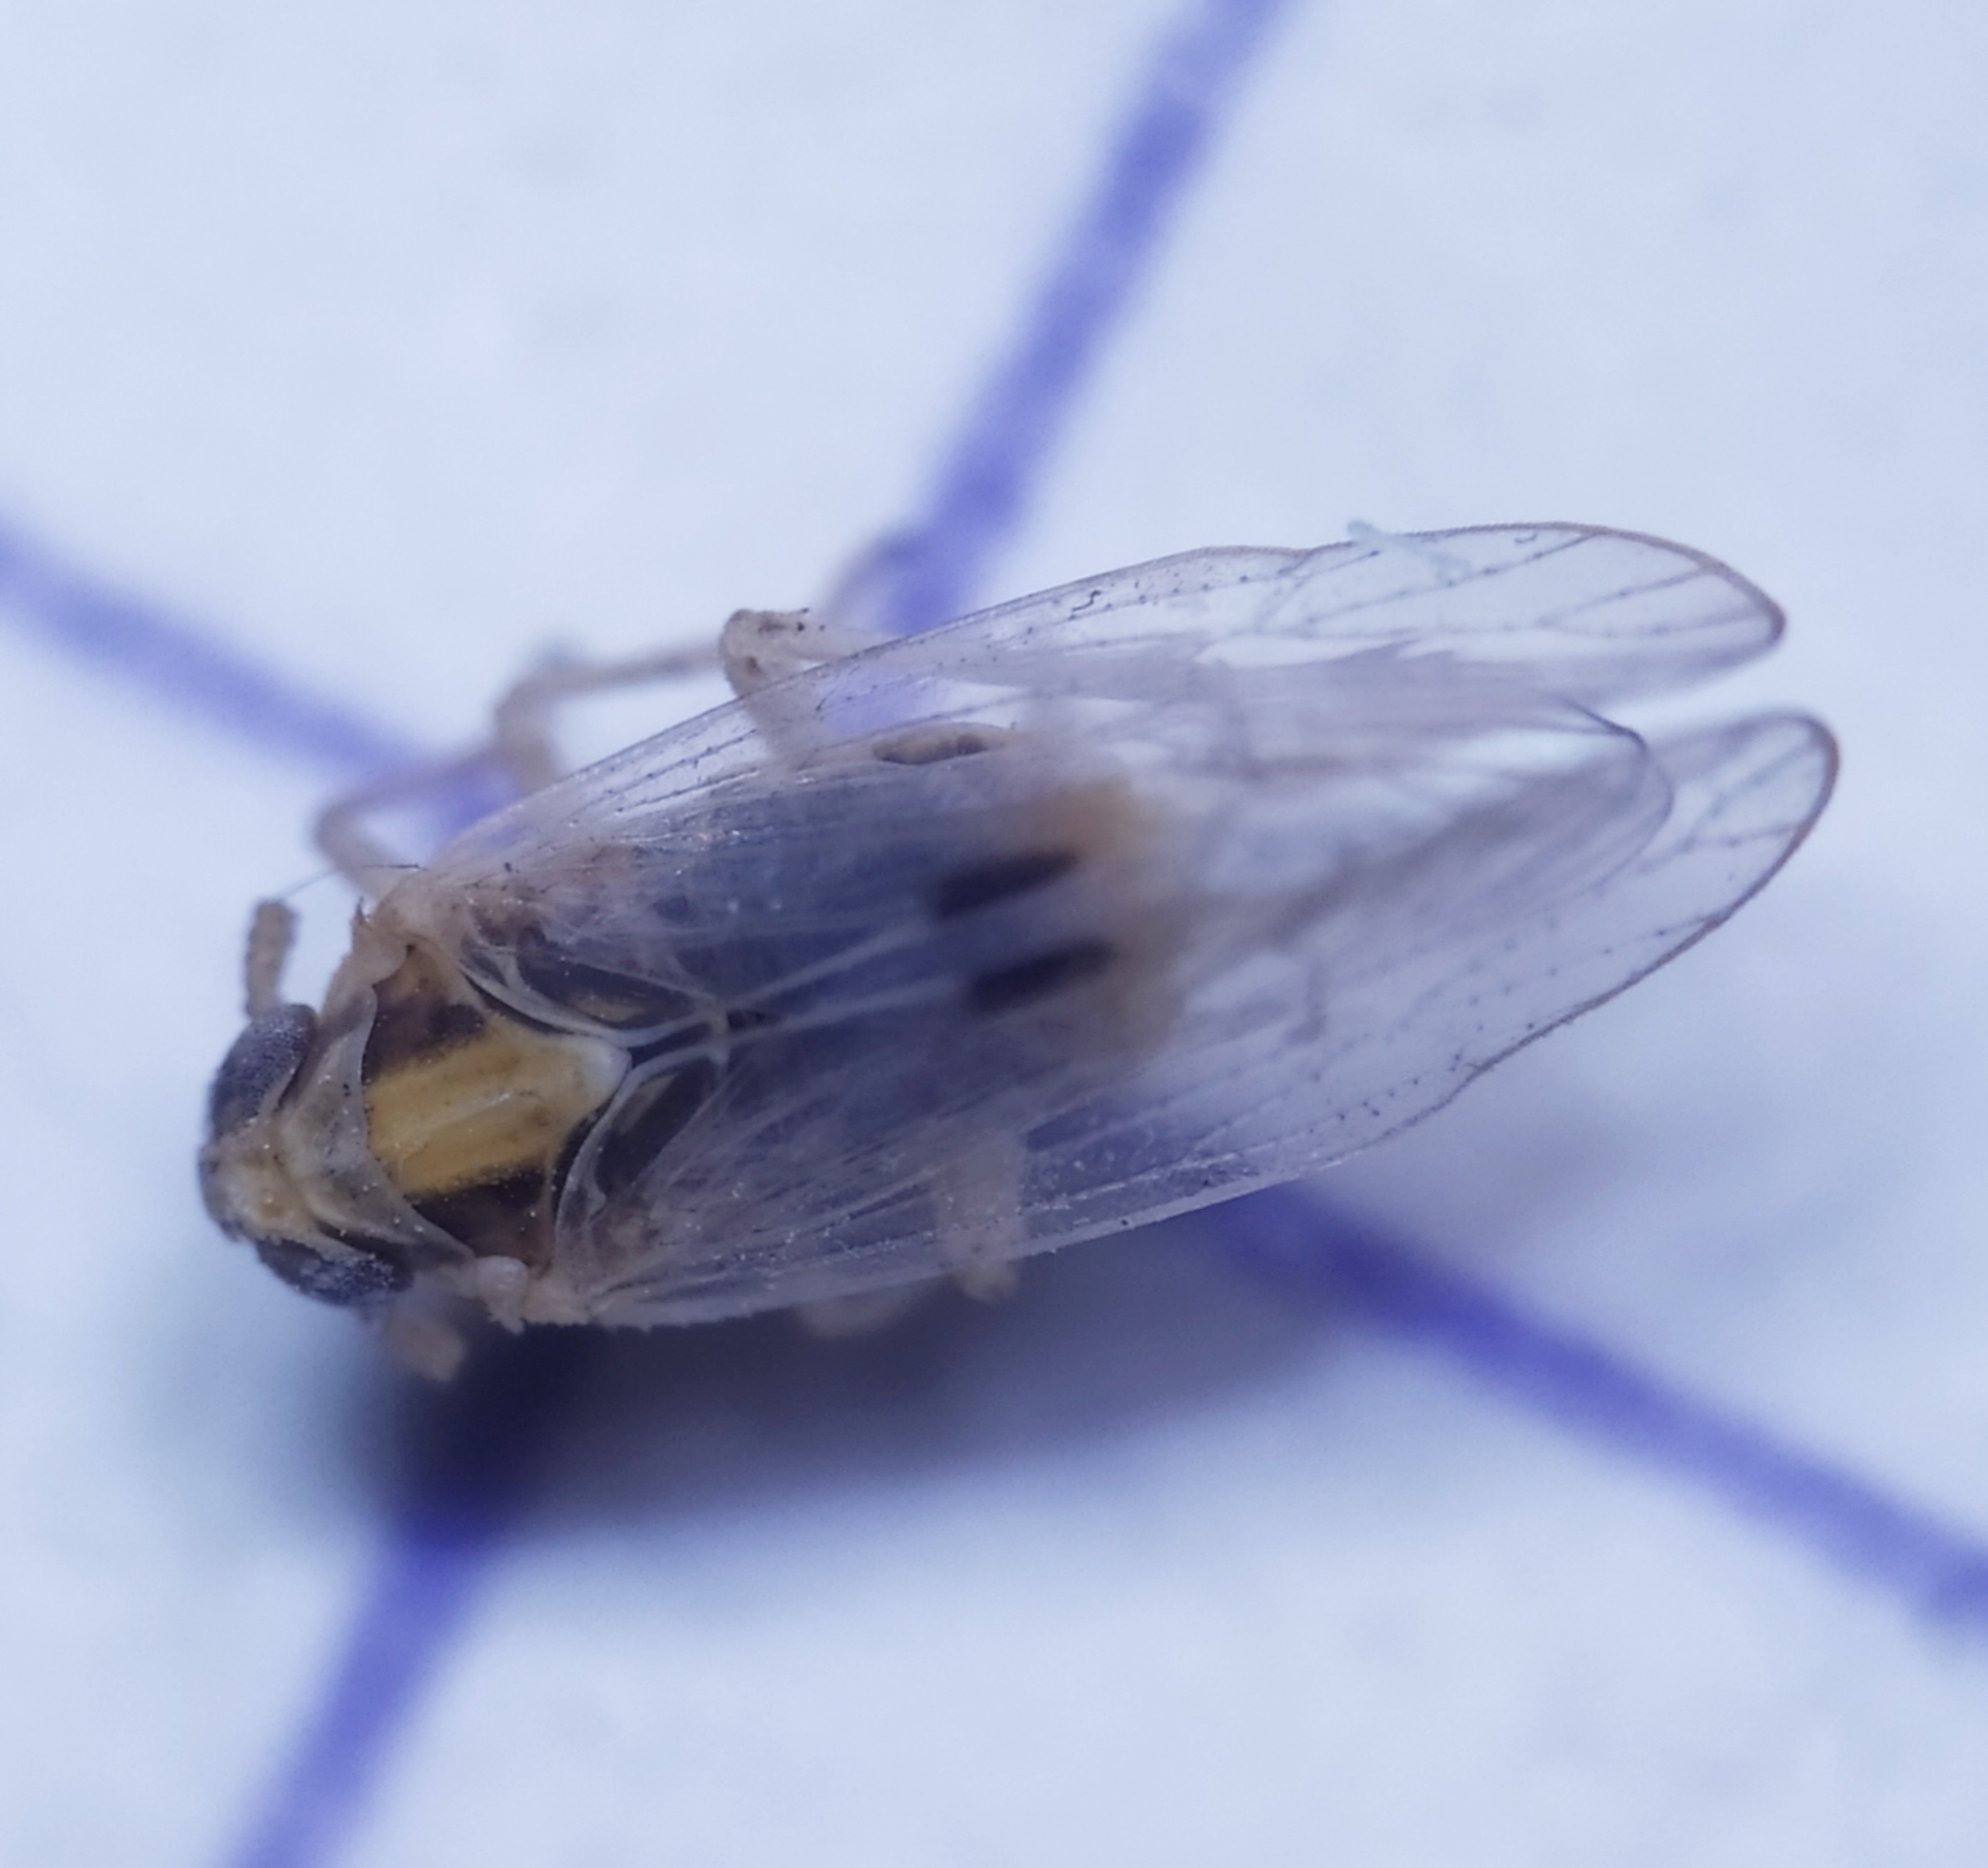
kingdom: Animalia
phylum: Arthropoda
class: Insecta
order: Hemiptera
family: Delphacidae
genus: Laodelphax
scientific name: Laodelphax striatellus
